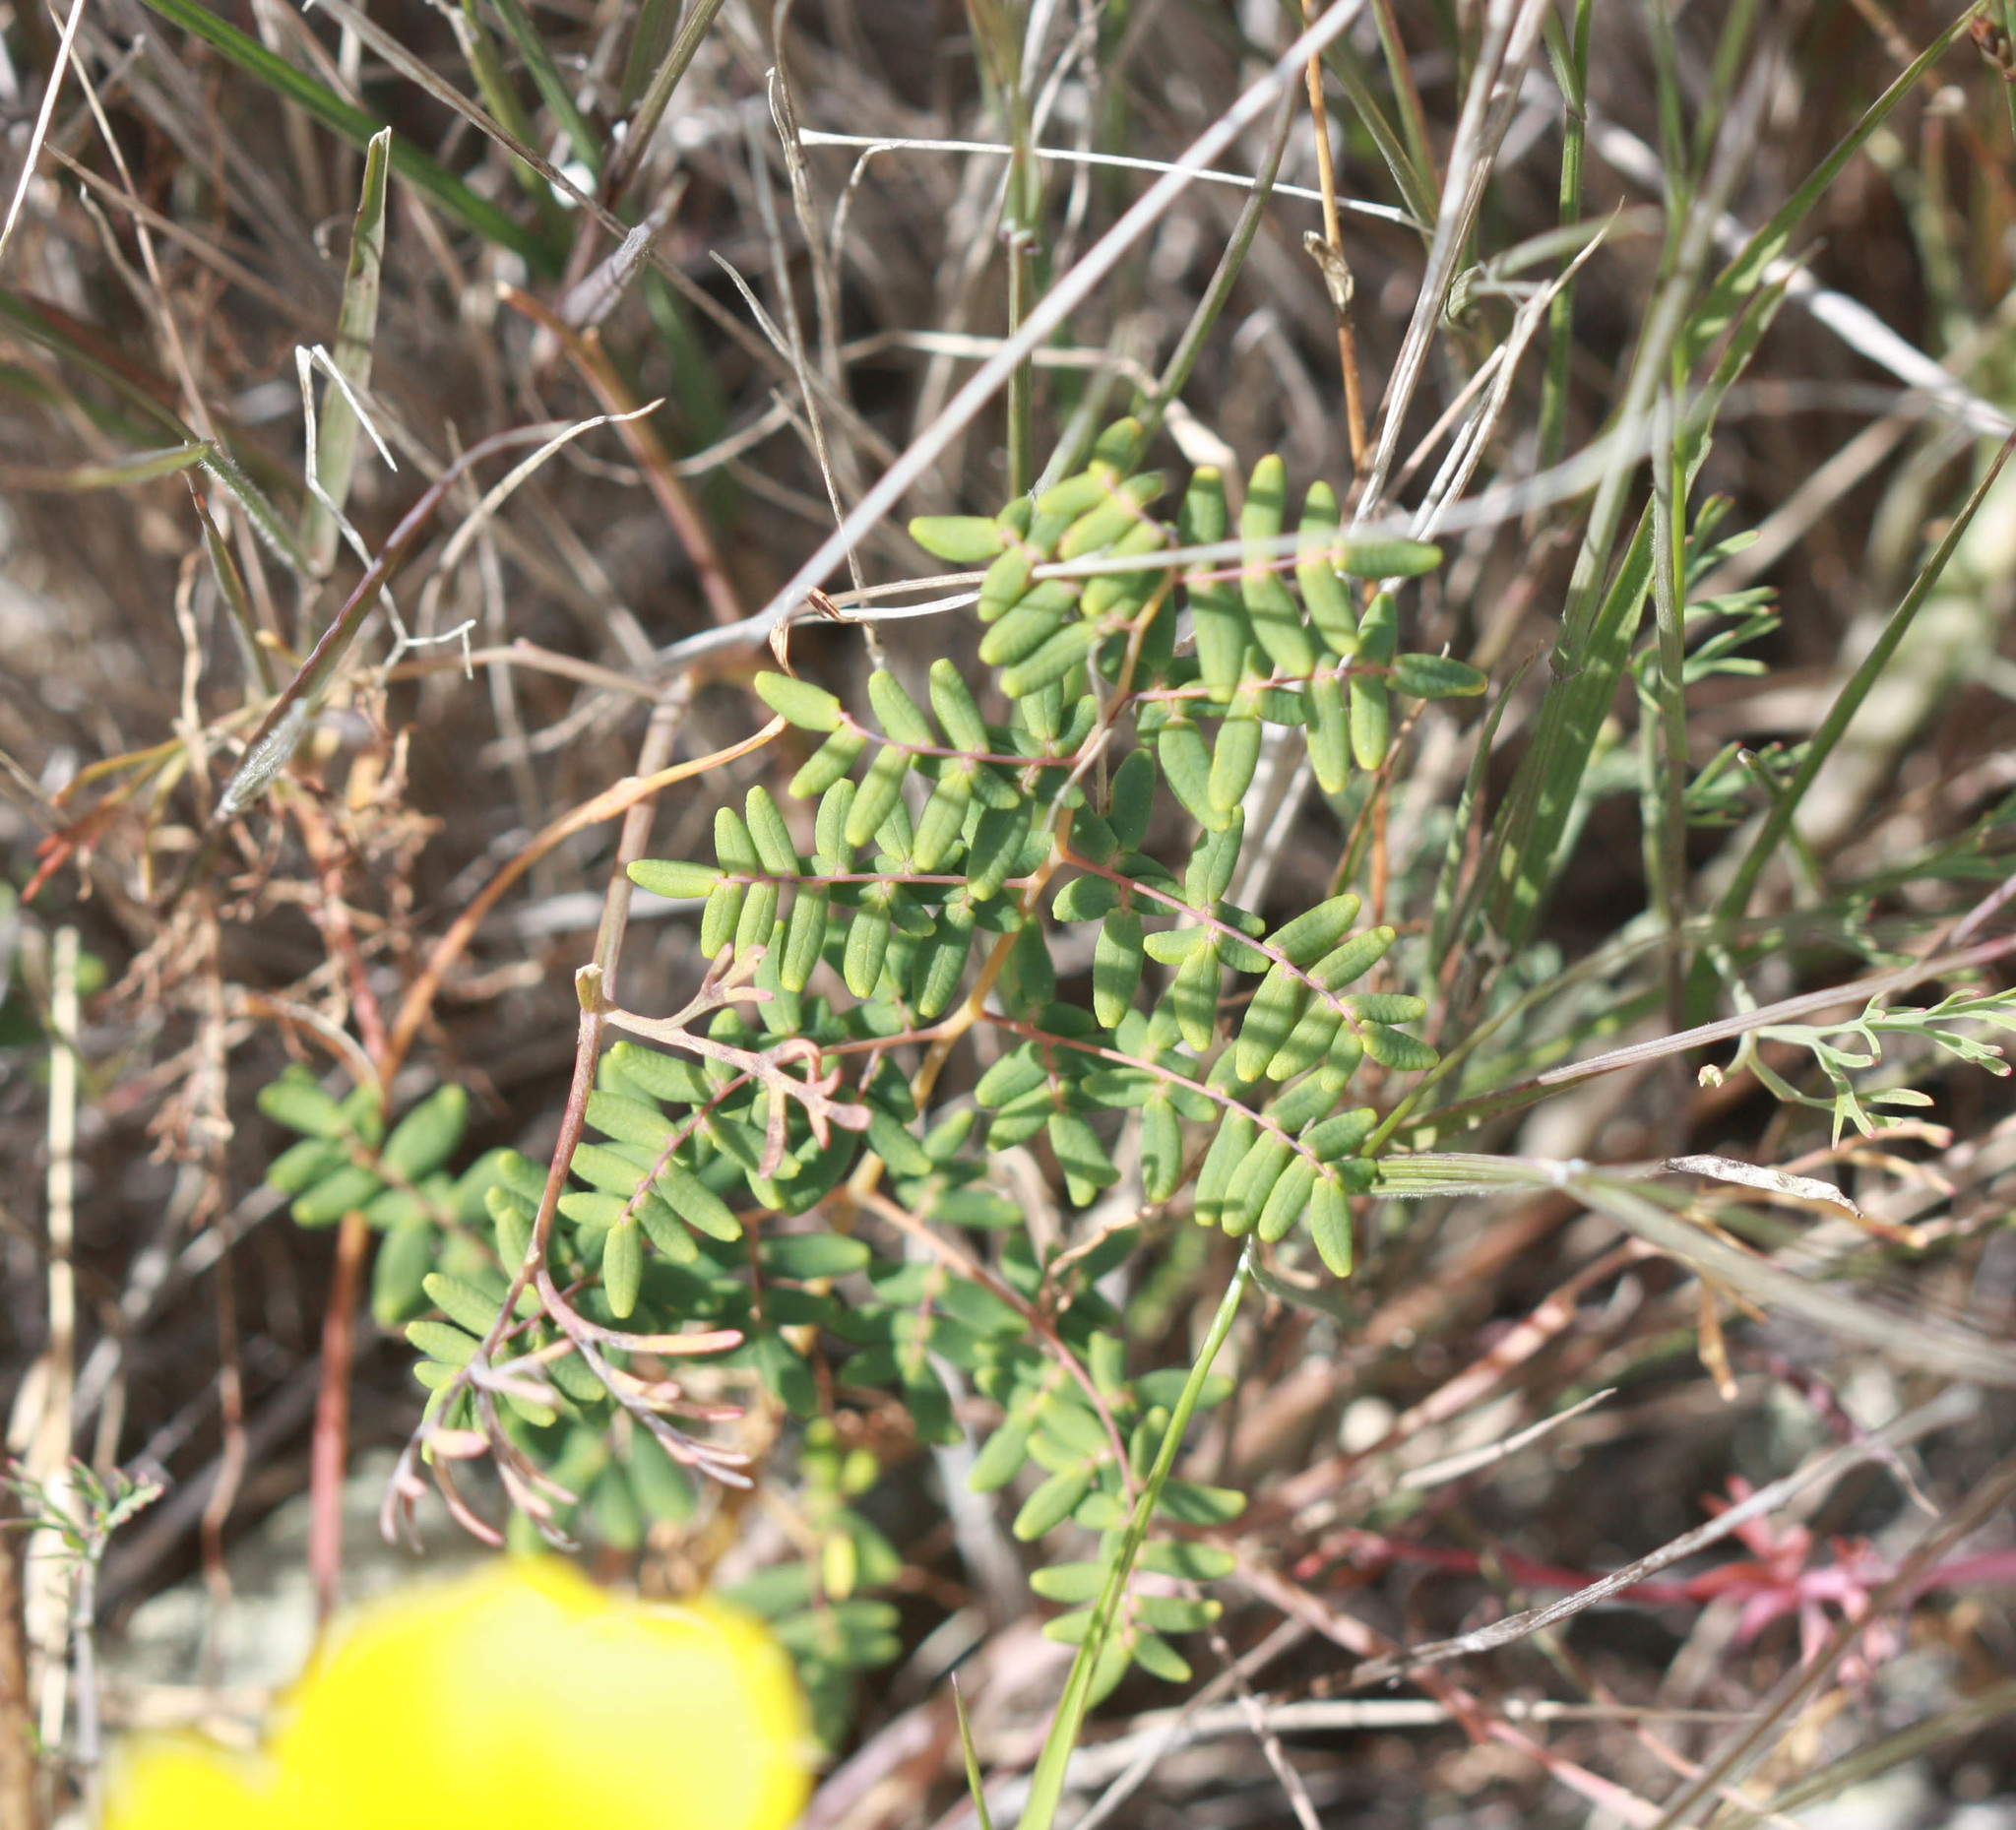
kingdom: Plantae
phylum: Tracheophyta
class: Polypodiopsida
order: Polypodiales
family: Pteridaceae
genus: Pellaea
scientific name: Pellaea andromedifolia
